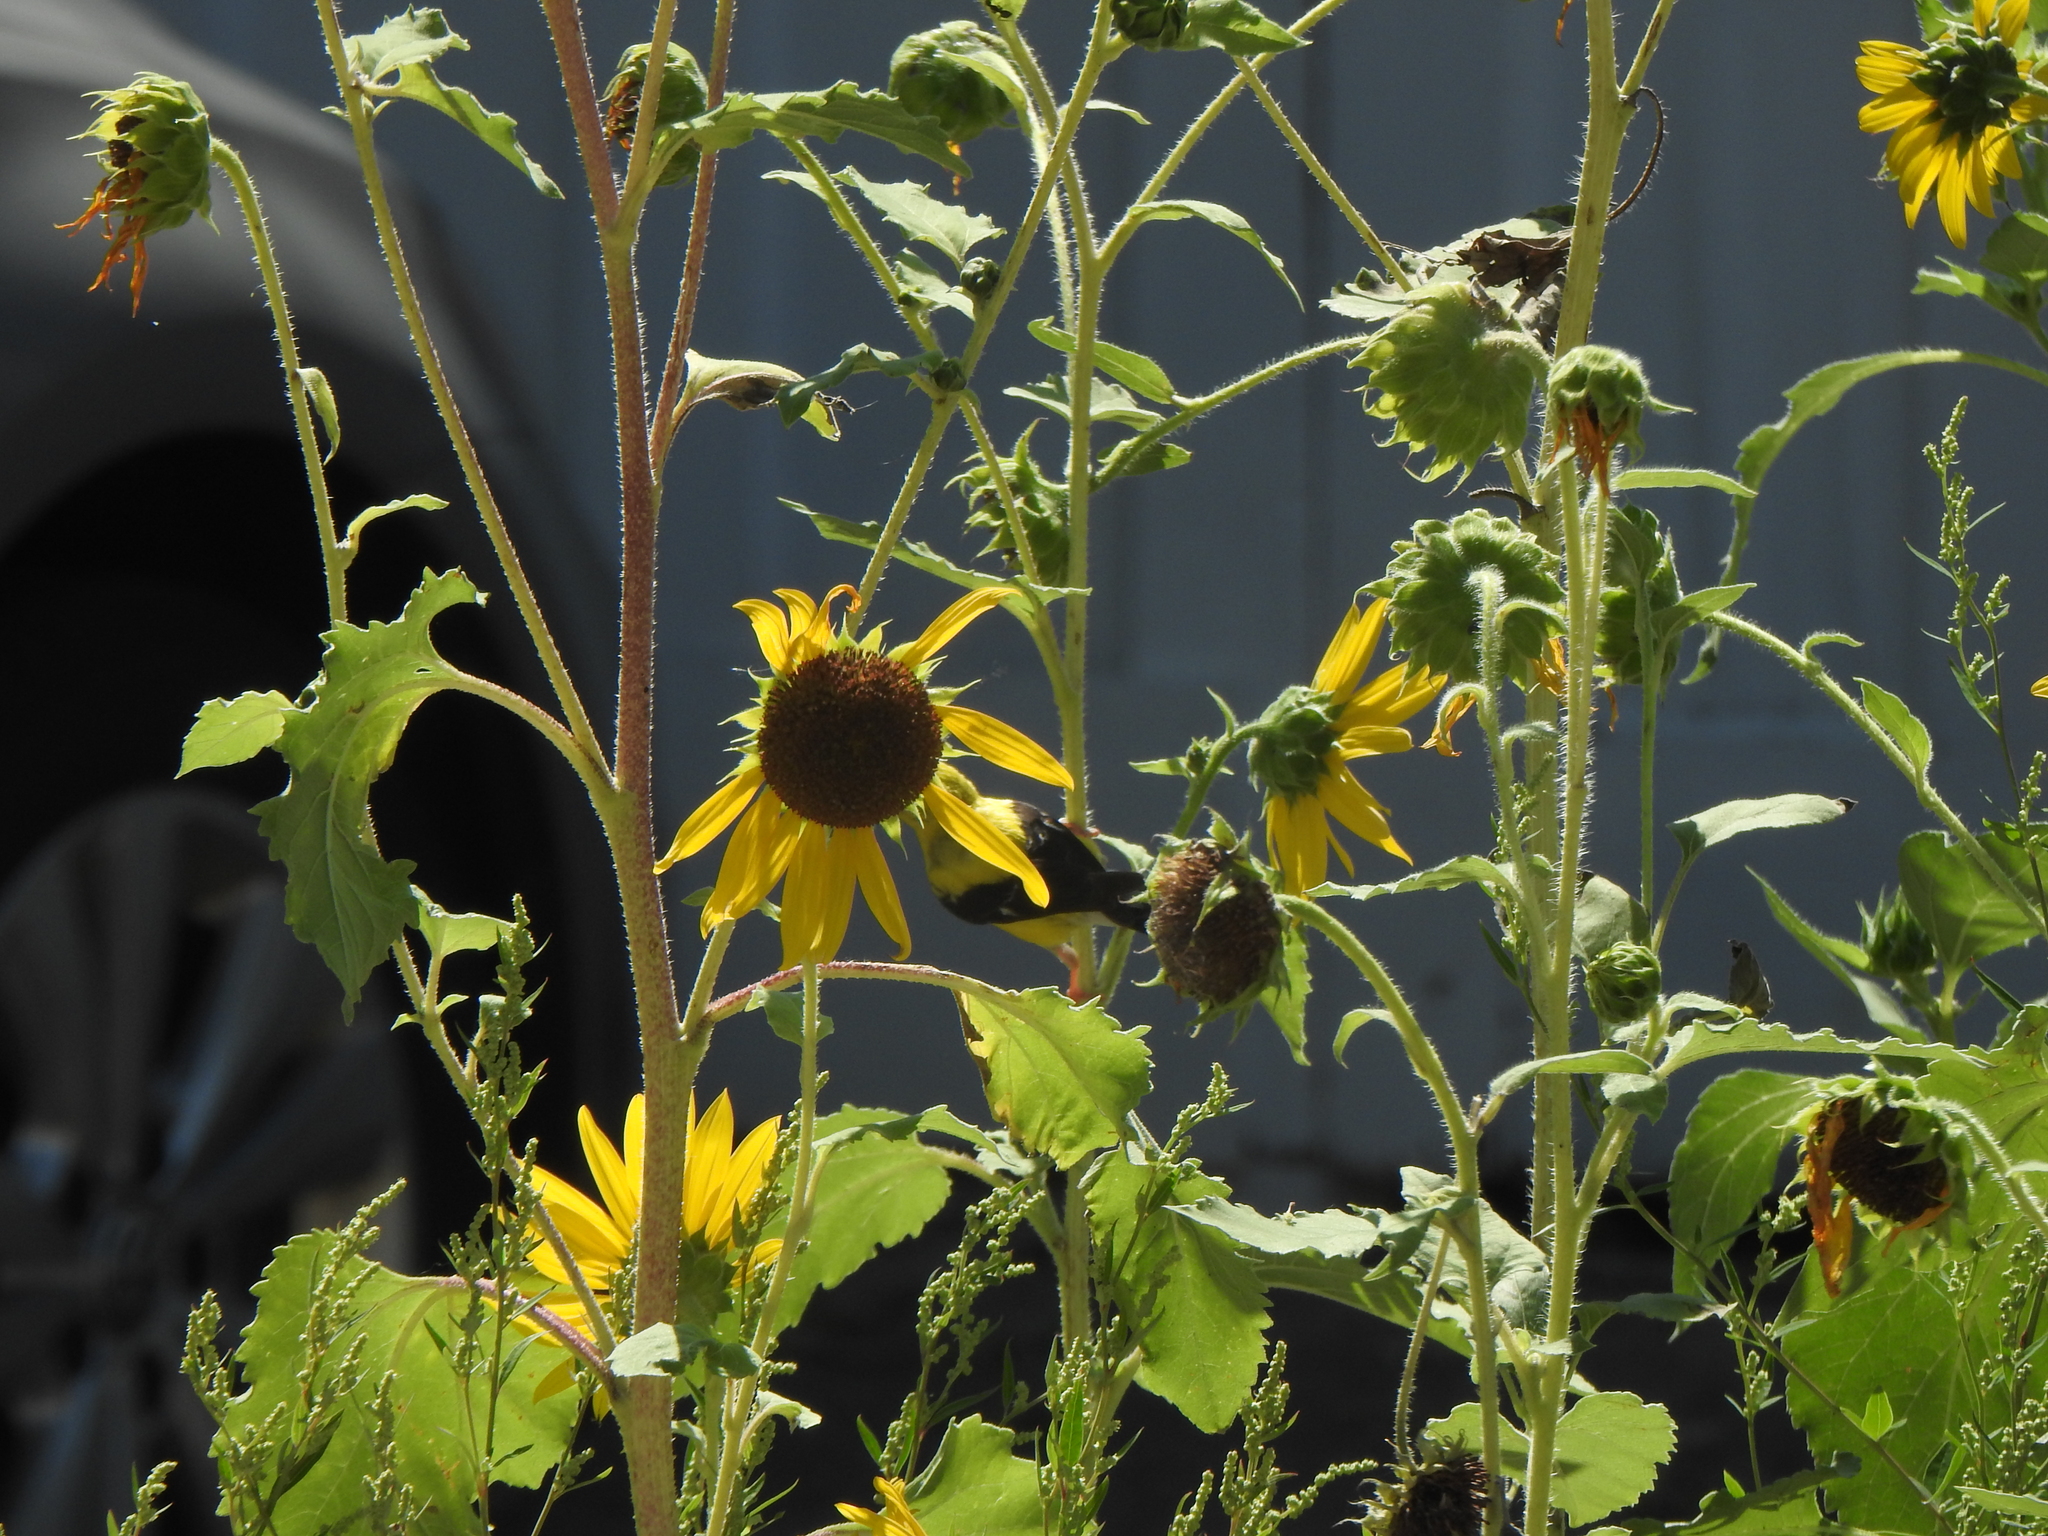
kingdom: Animalia
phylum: Chordata
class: Aves
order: Passeriformes
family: Fringillidae
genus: Spinus
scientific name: Spinus tristis
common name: American goldfinch
